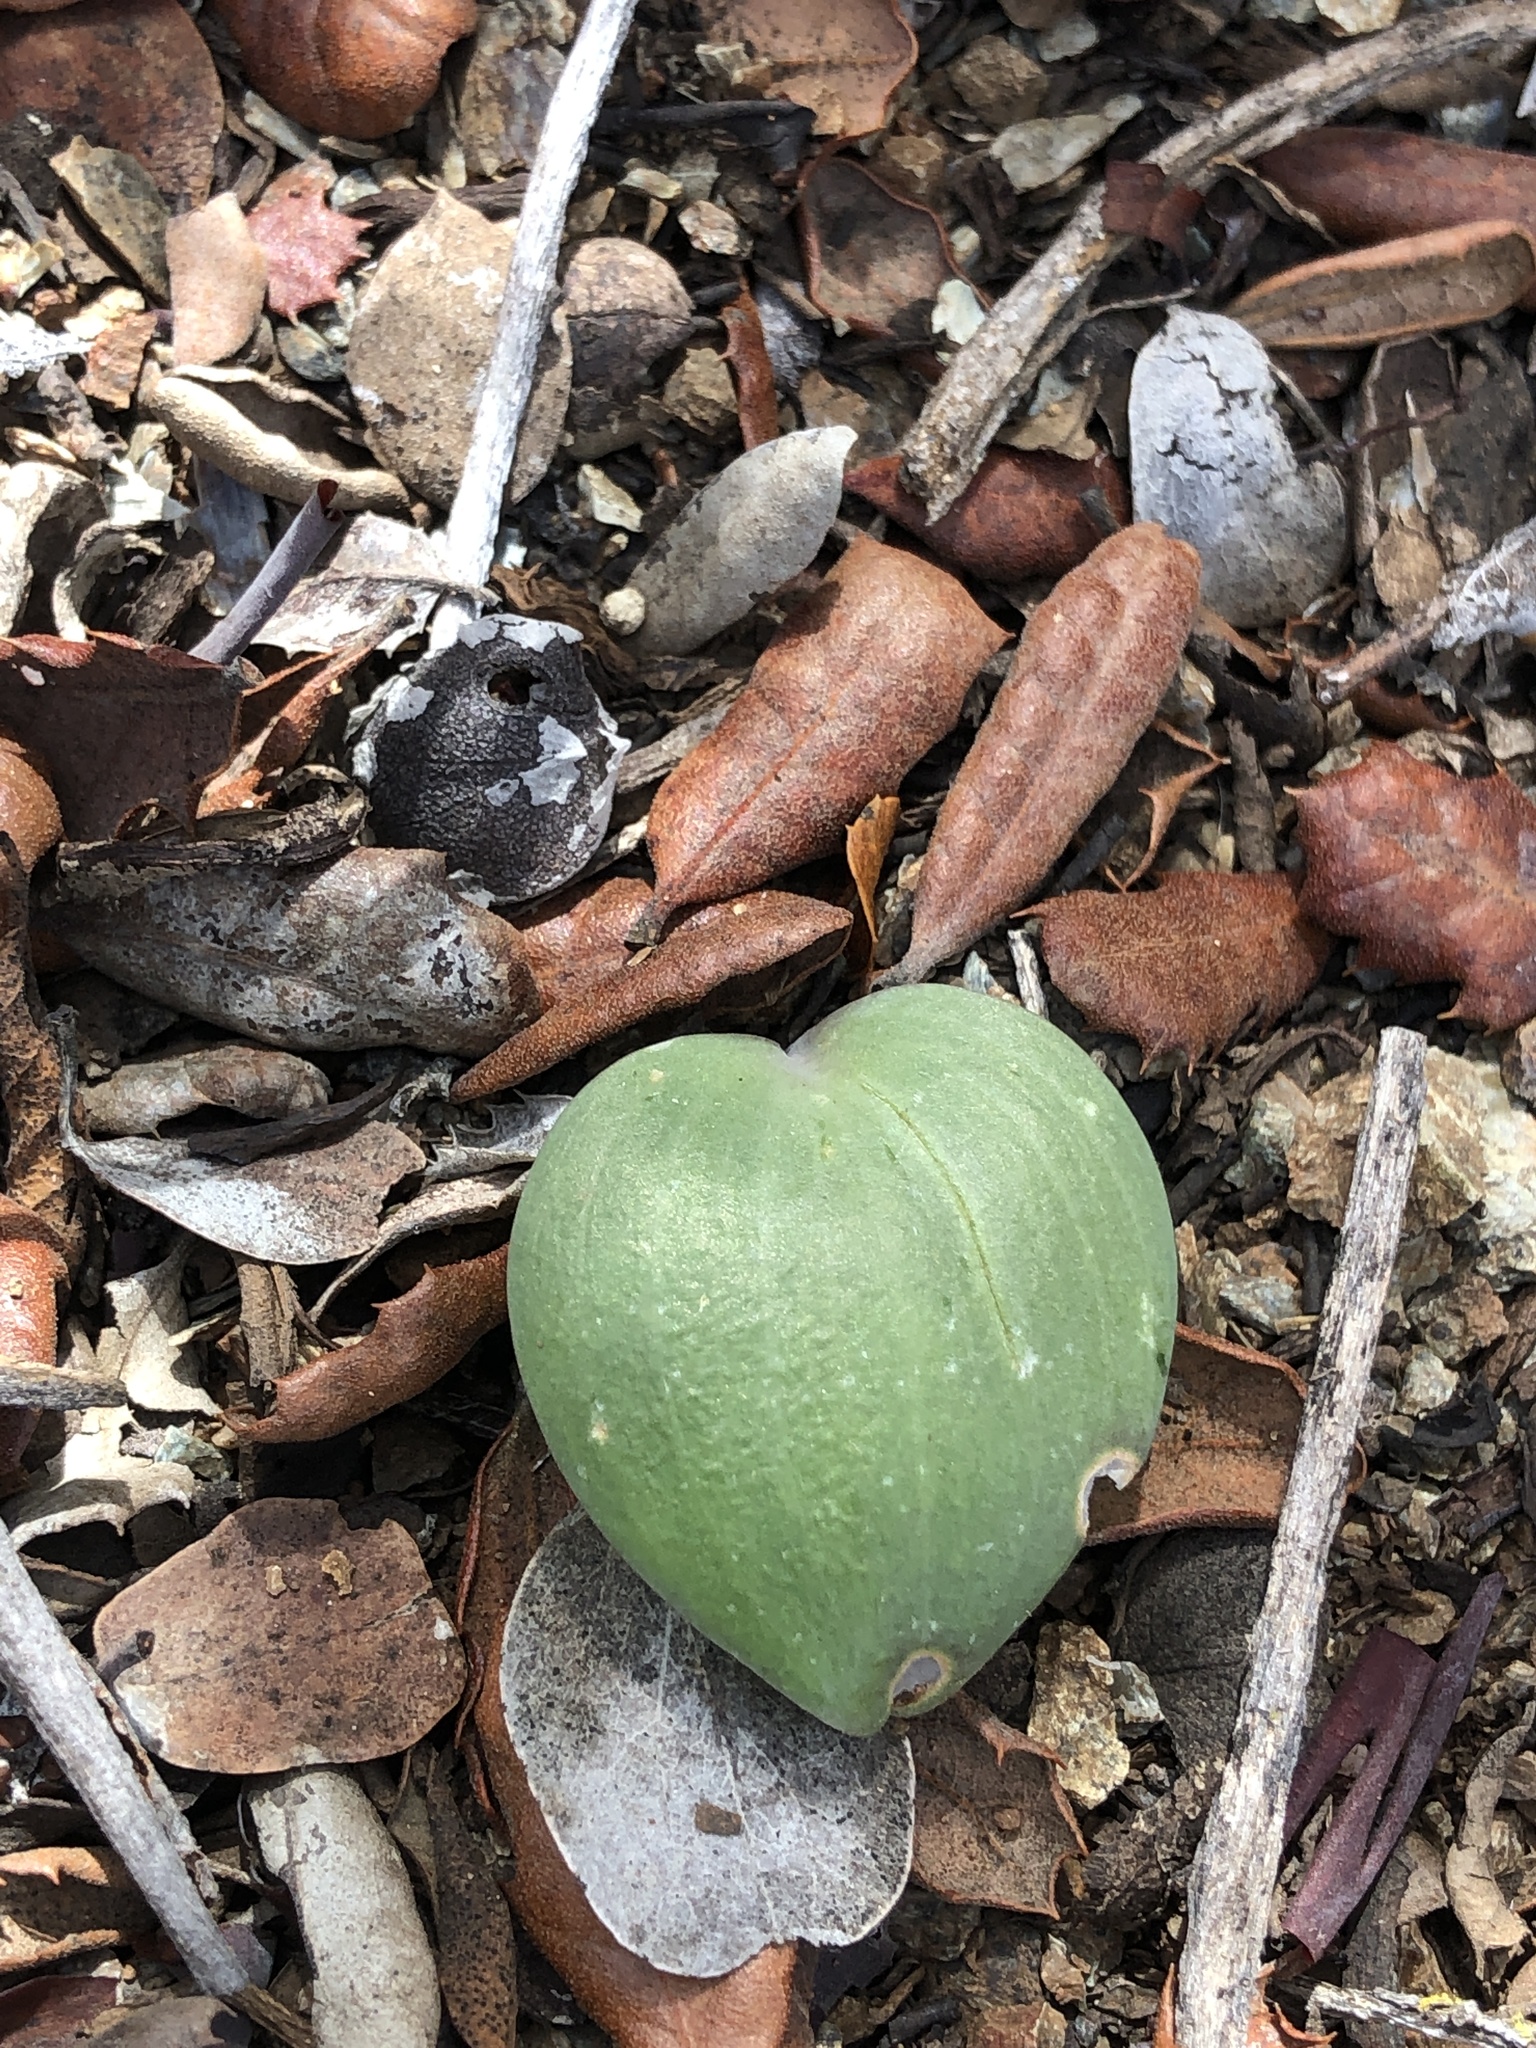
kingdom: Plantae
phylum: Tracheophyta
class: Liliopsida
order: Liliales
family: Liliaceae
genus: Fritillaria
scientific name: Fritillaria viridea
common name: San benito fritillary
